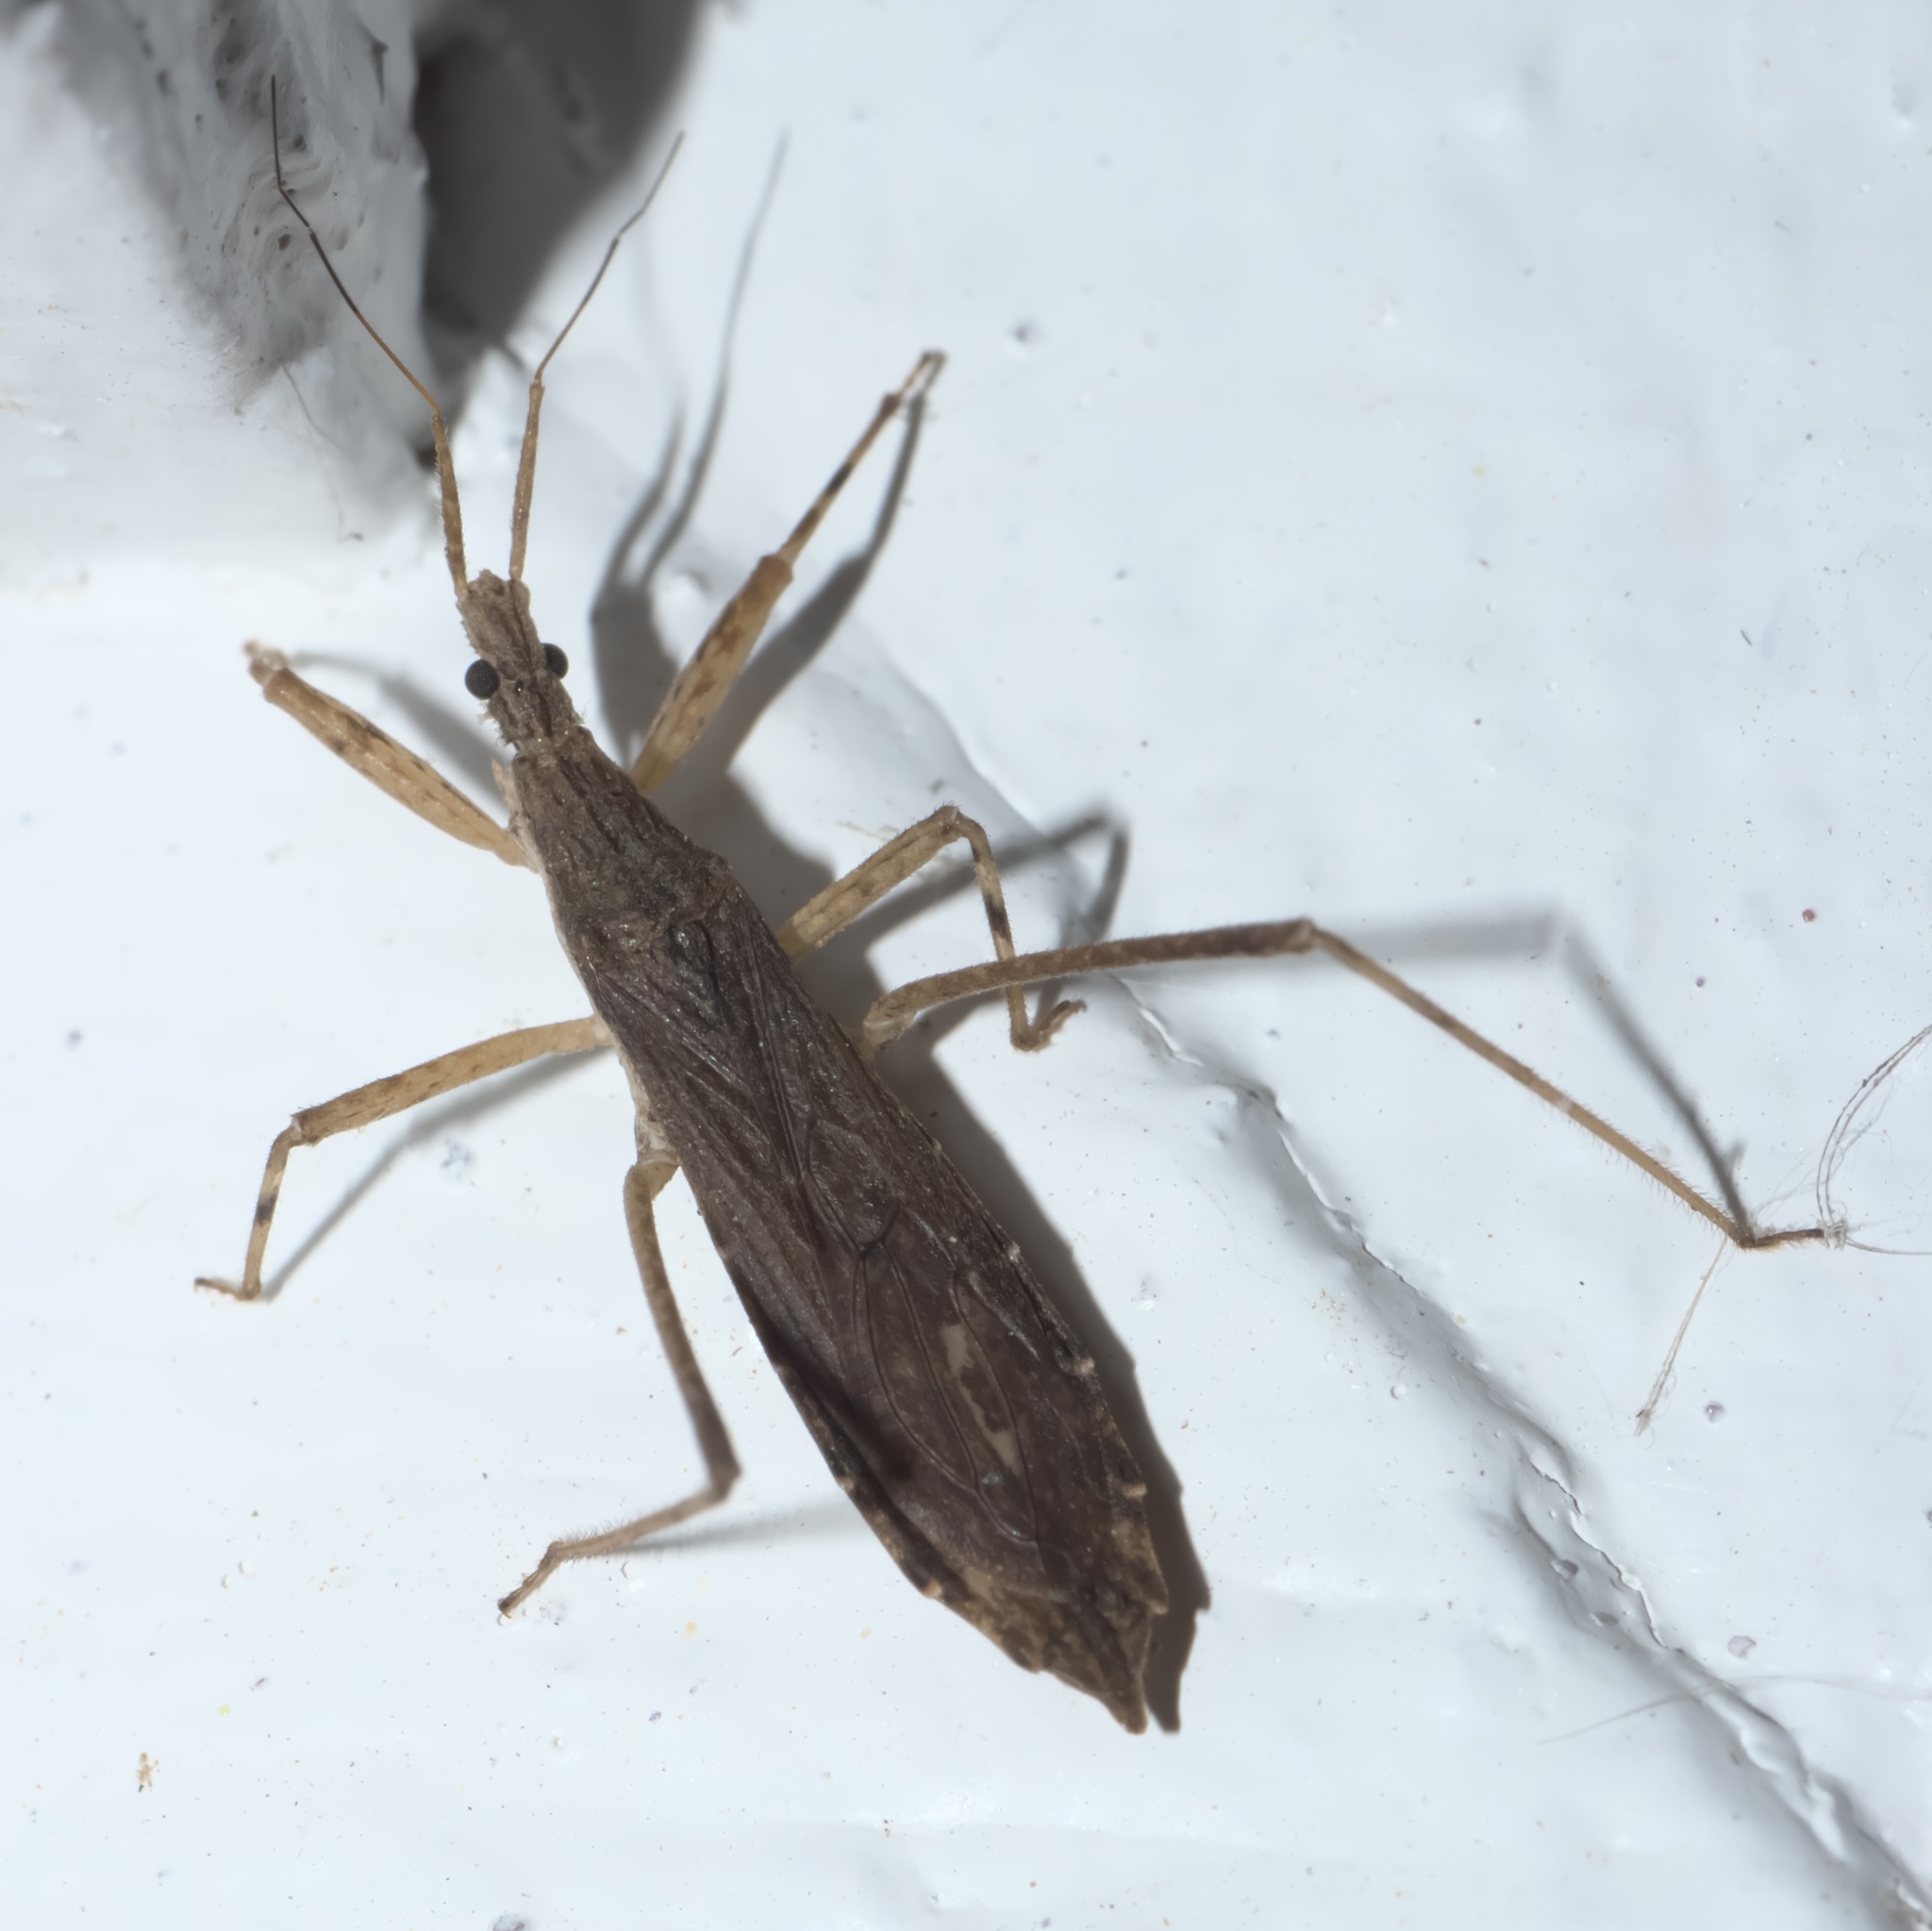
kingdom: Animalia
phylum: Arthropoda
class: Insecta
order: Hemiptera
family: Reduviidae
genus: Pygolampis
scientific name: Pygolampis pectoralis
